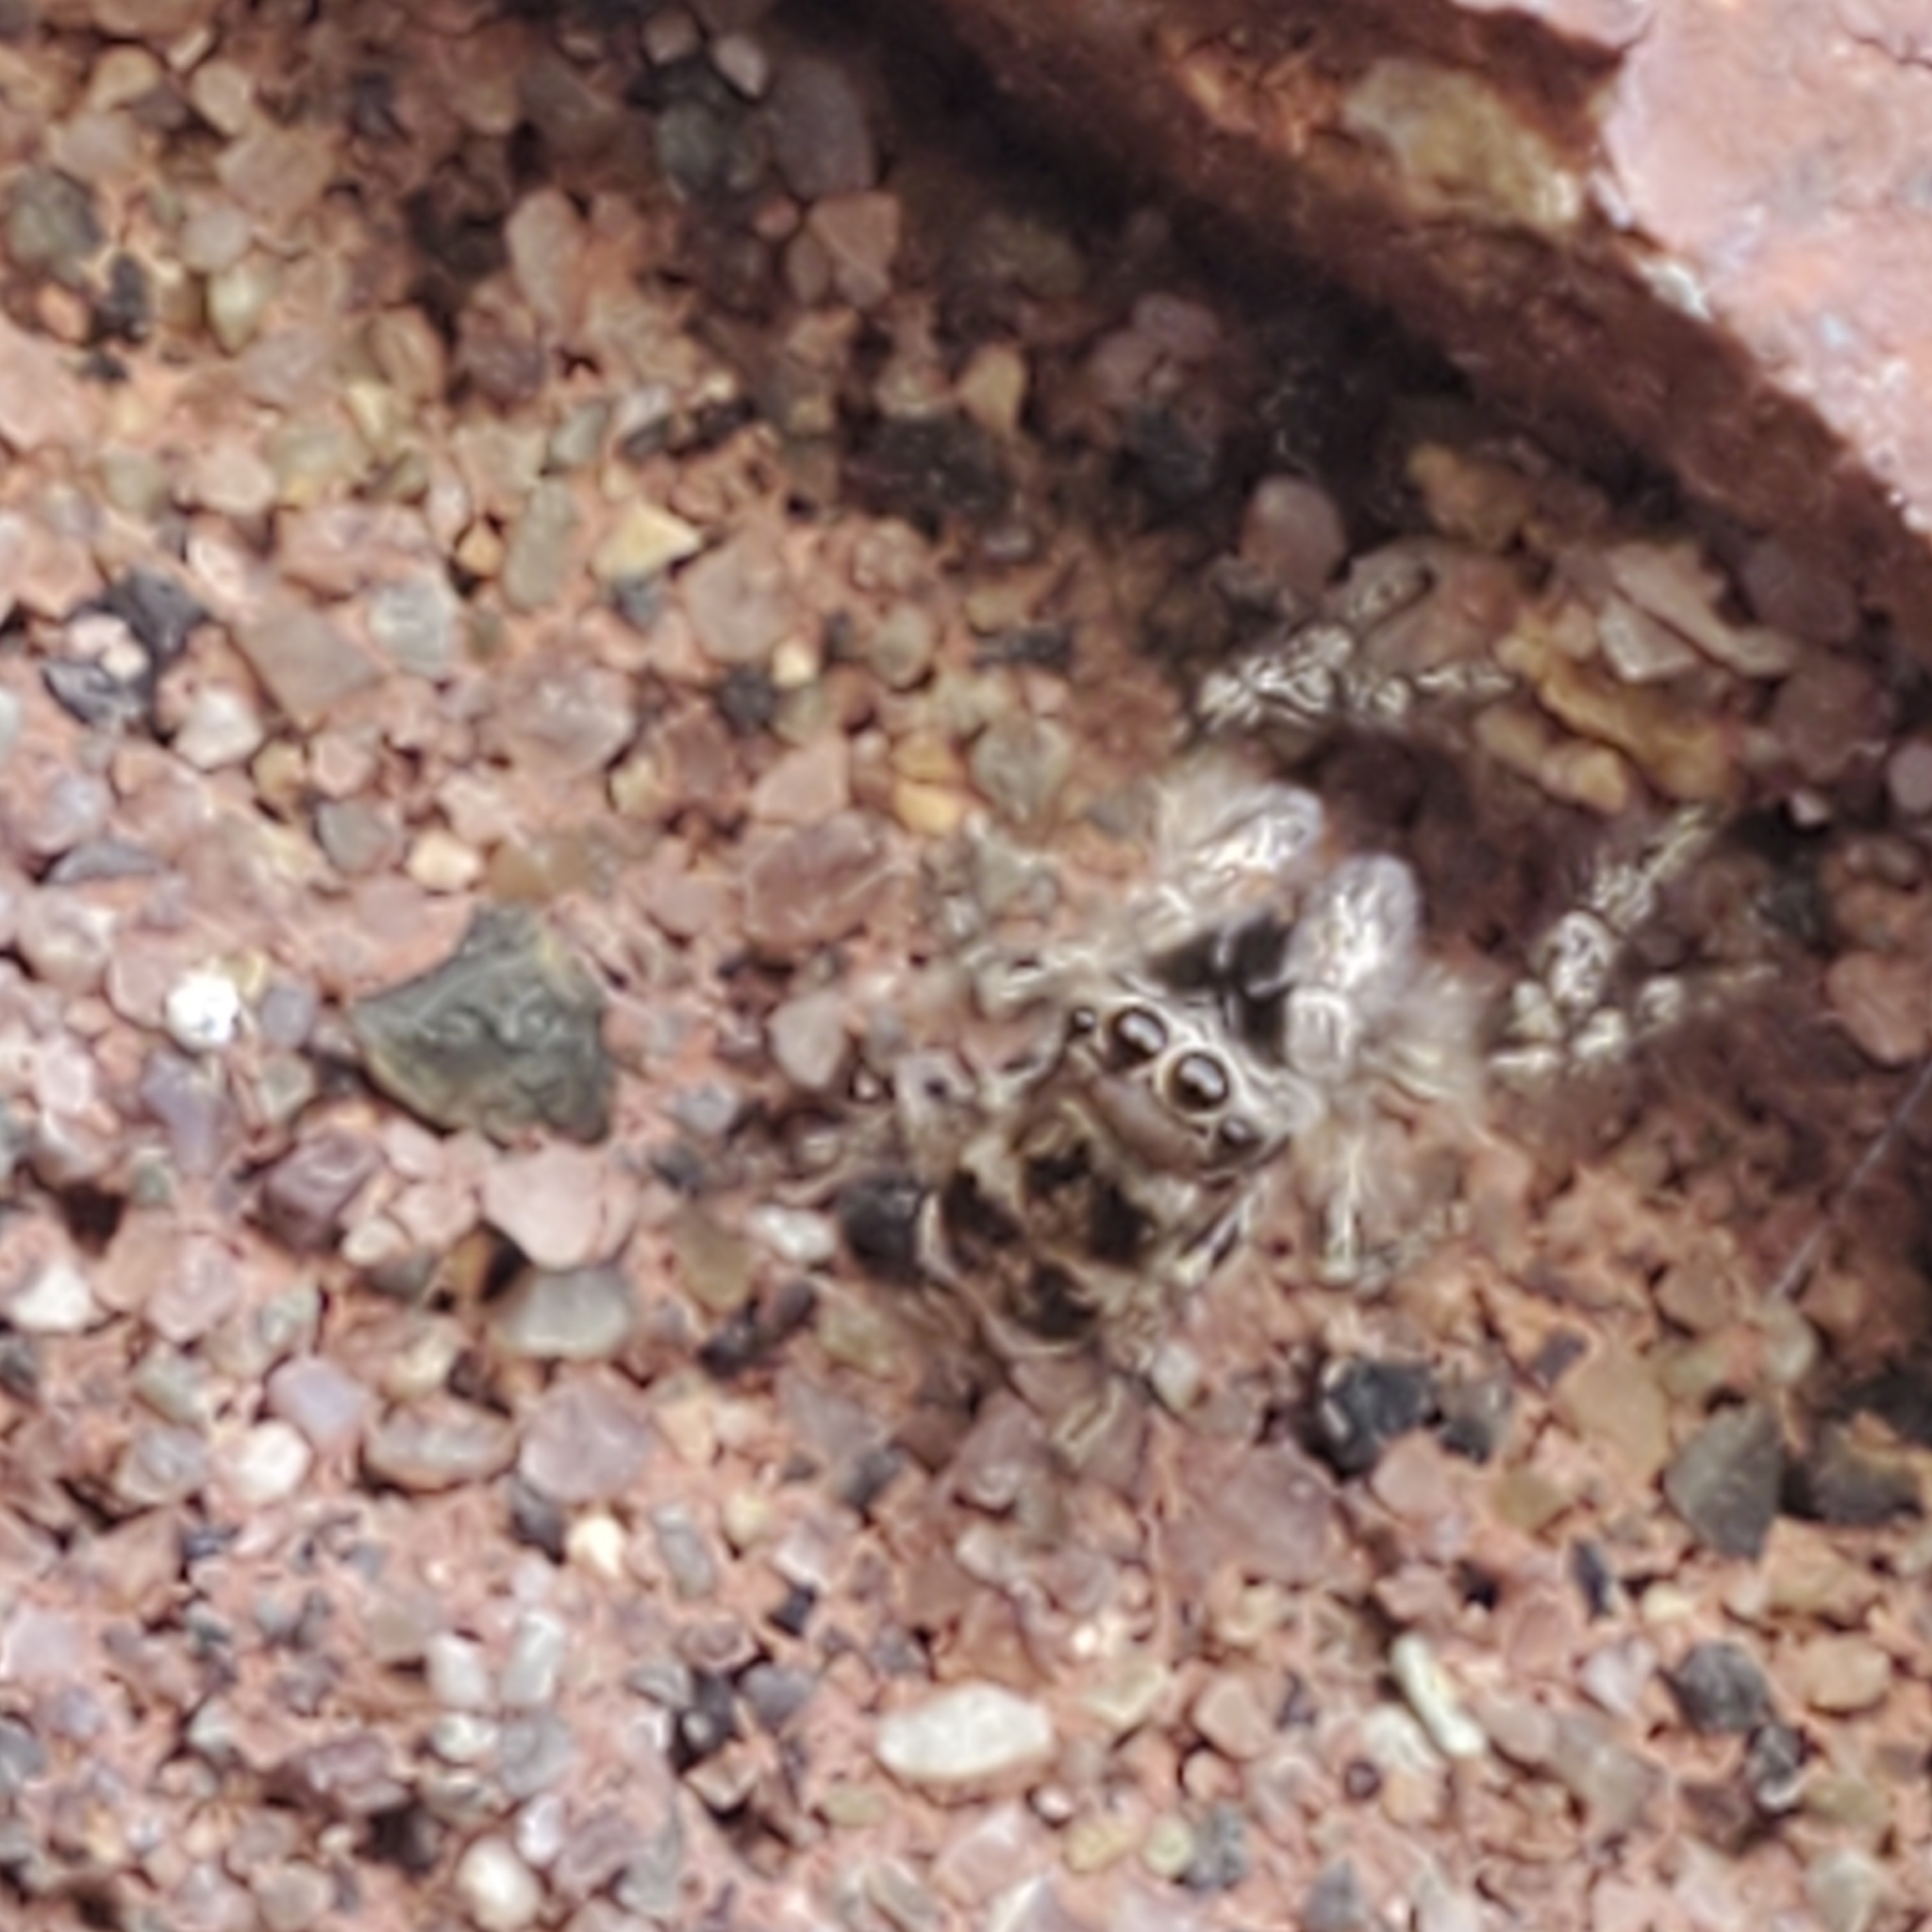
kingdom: Animalia
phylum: Arthropoda
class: Arachnida
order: Araneae
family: Salticidae
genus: Salticus
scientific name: Salticus scenicus
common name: Zebra jumper
